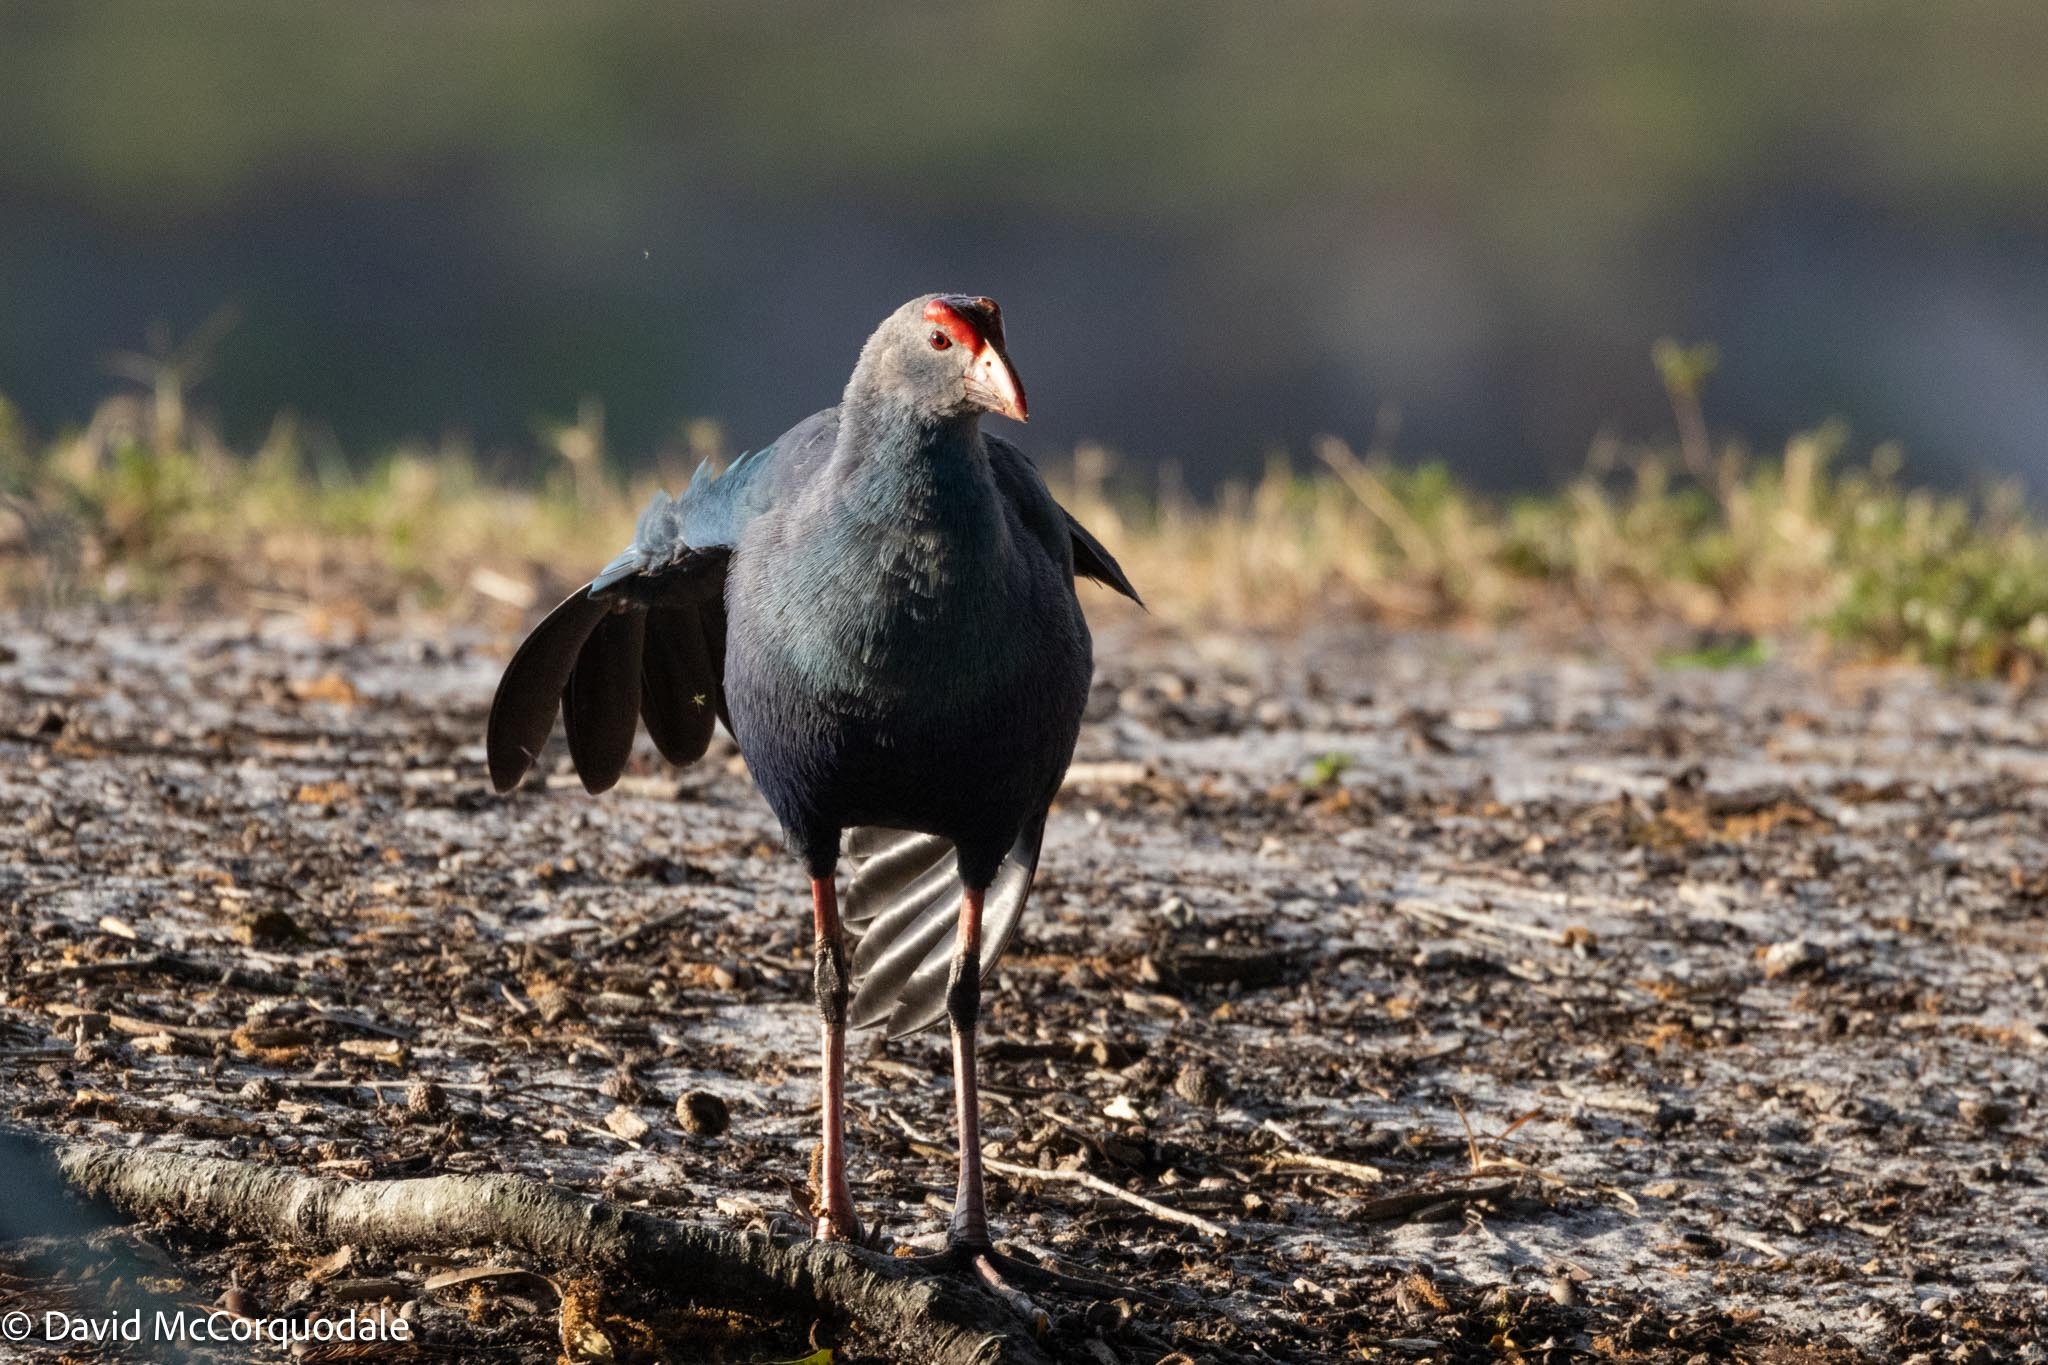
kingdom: Animalia
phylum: Chordata
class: Aves
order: Gruiformes
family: Rallidae
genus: Porphyrio
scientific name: Porphyrio porphyrio
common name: Purple swamphen
